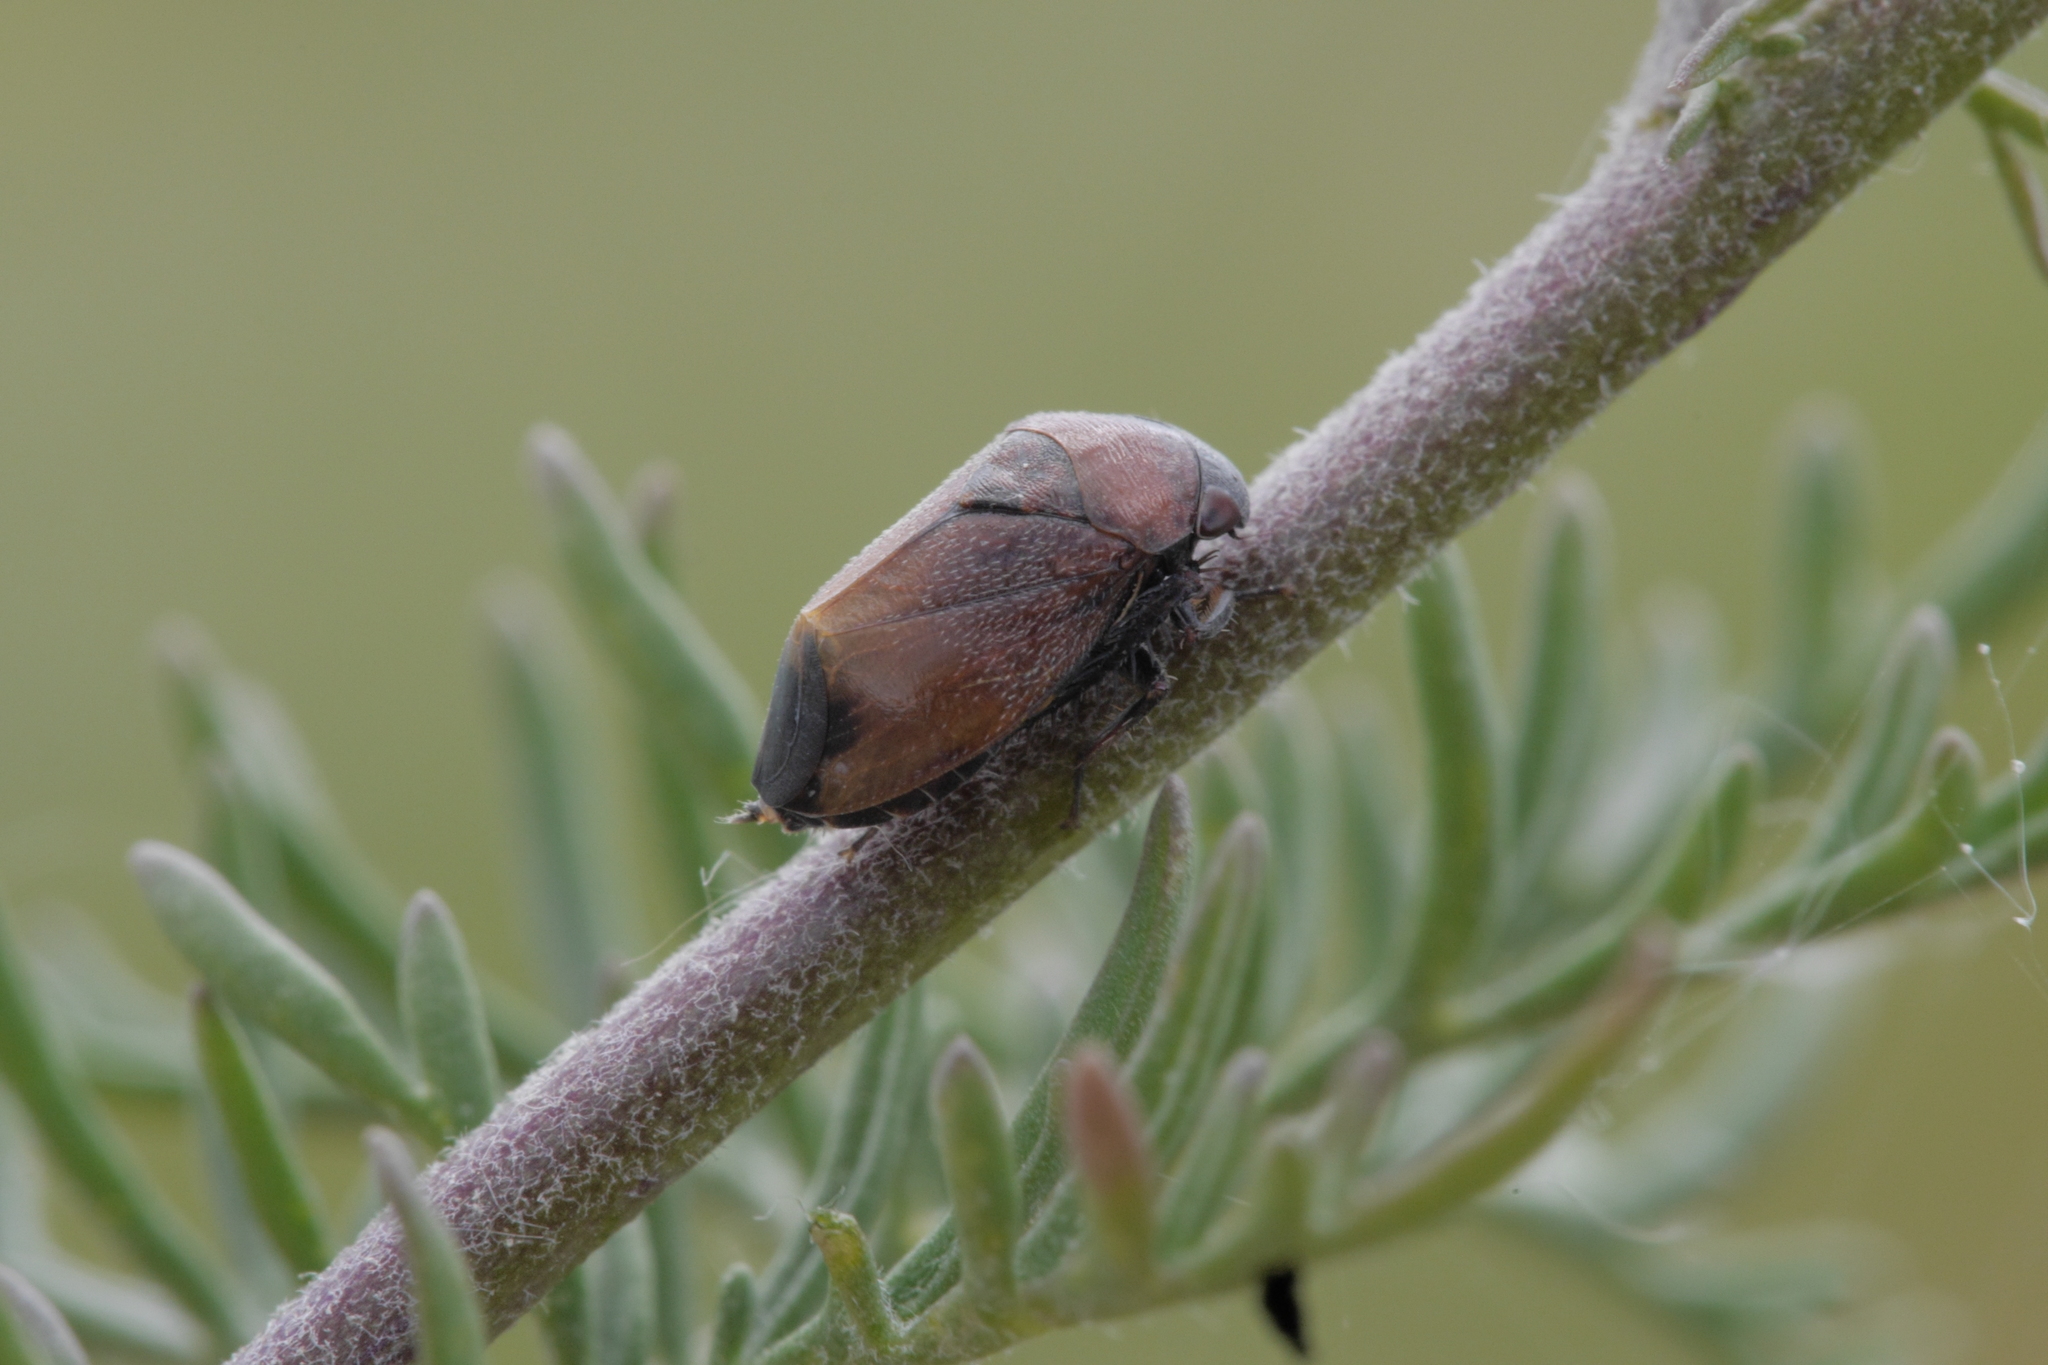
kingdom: Animalia
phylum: Arthropoda
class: Insecta
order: Hemiptera
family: Cicadellidae
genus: Penthimia
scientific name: Penthimia nigra
